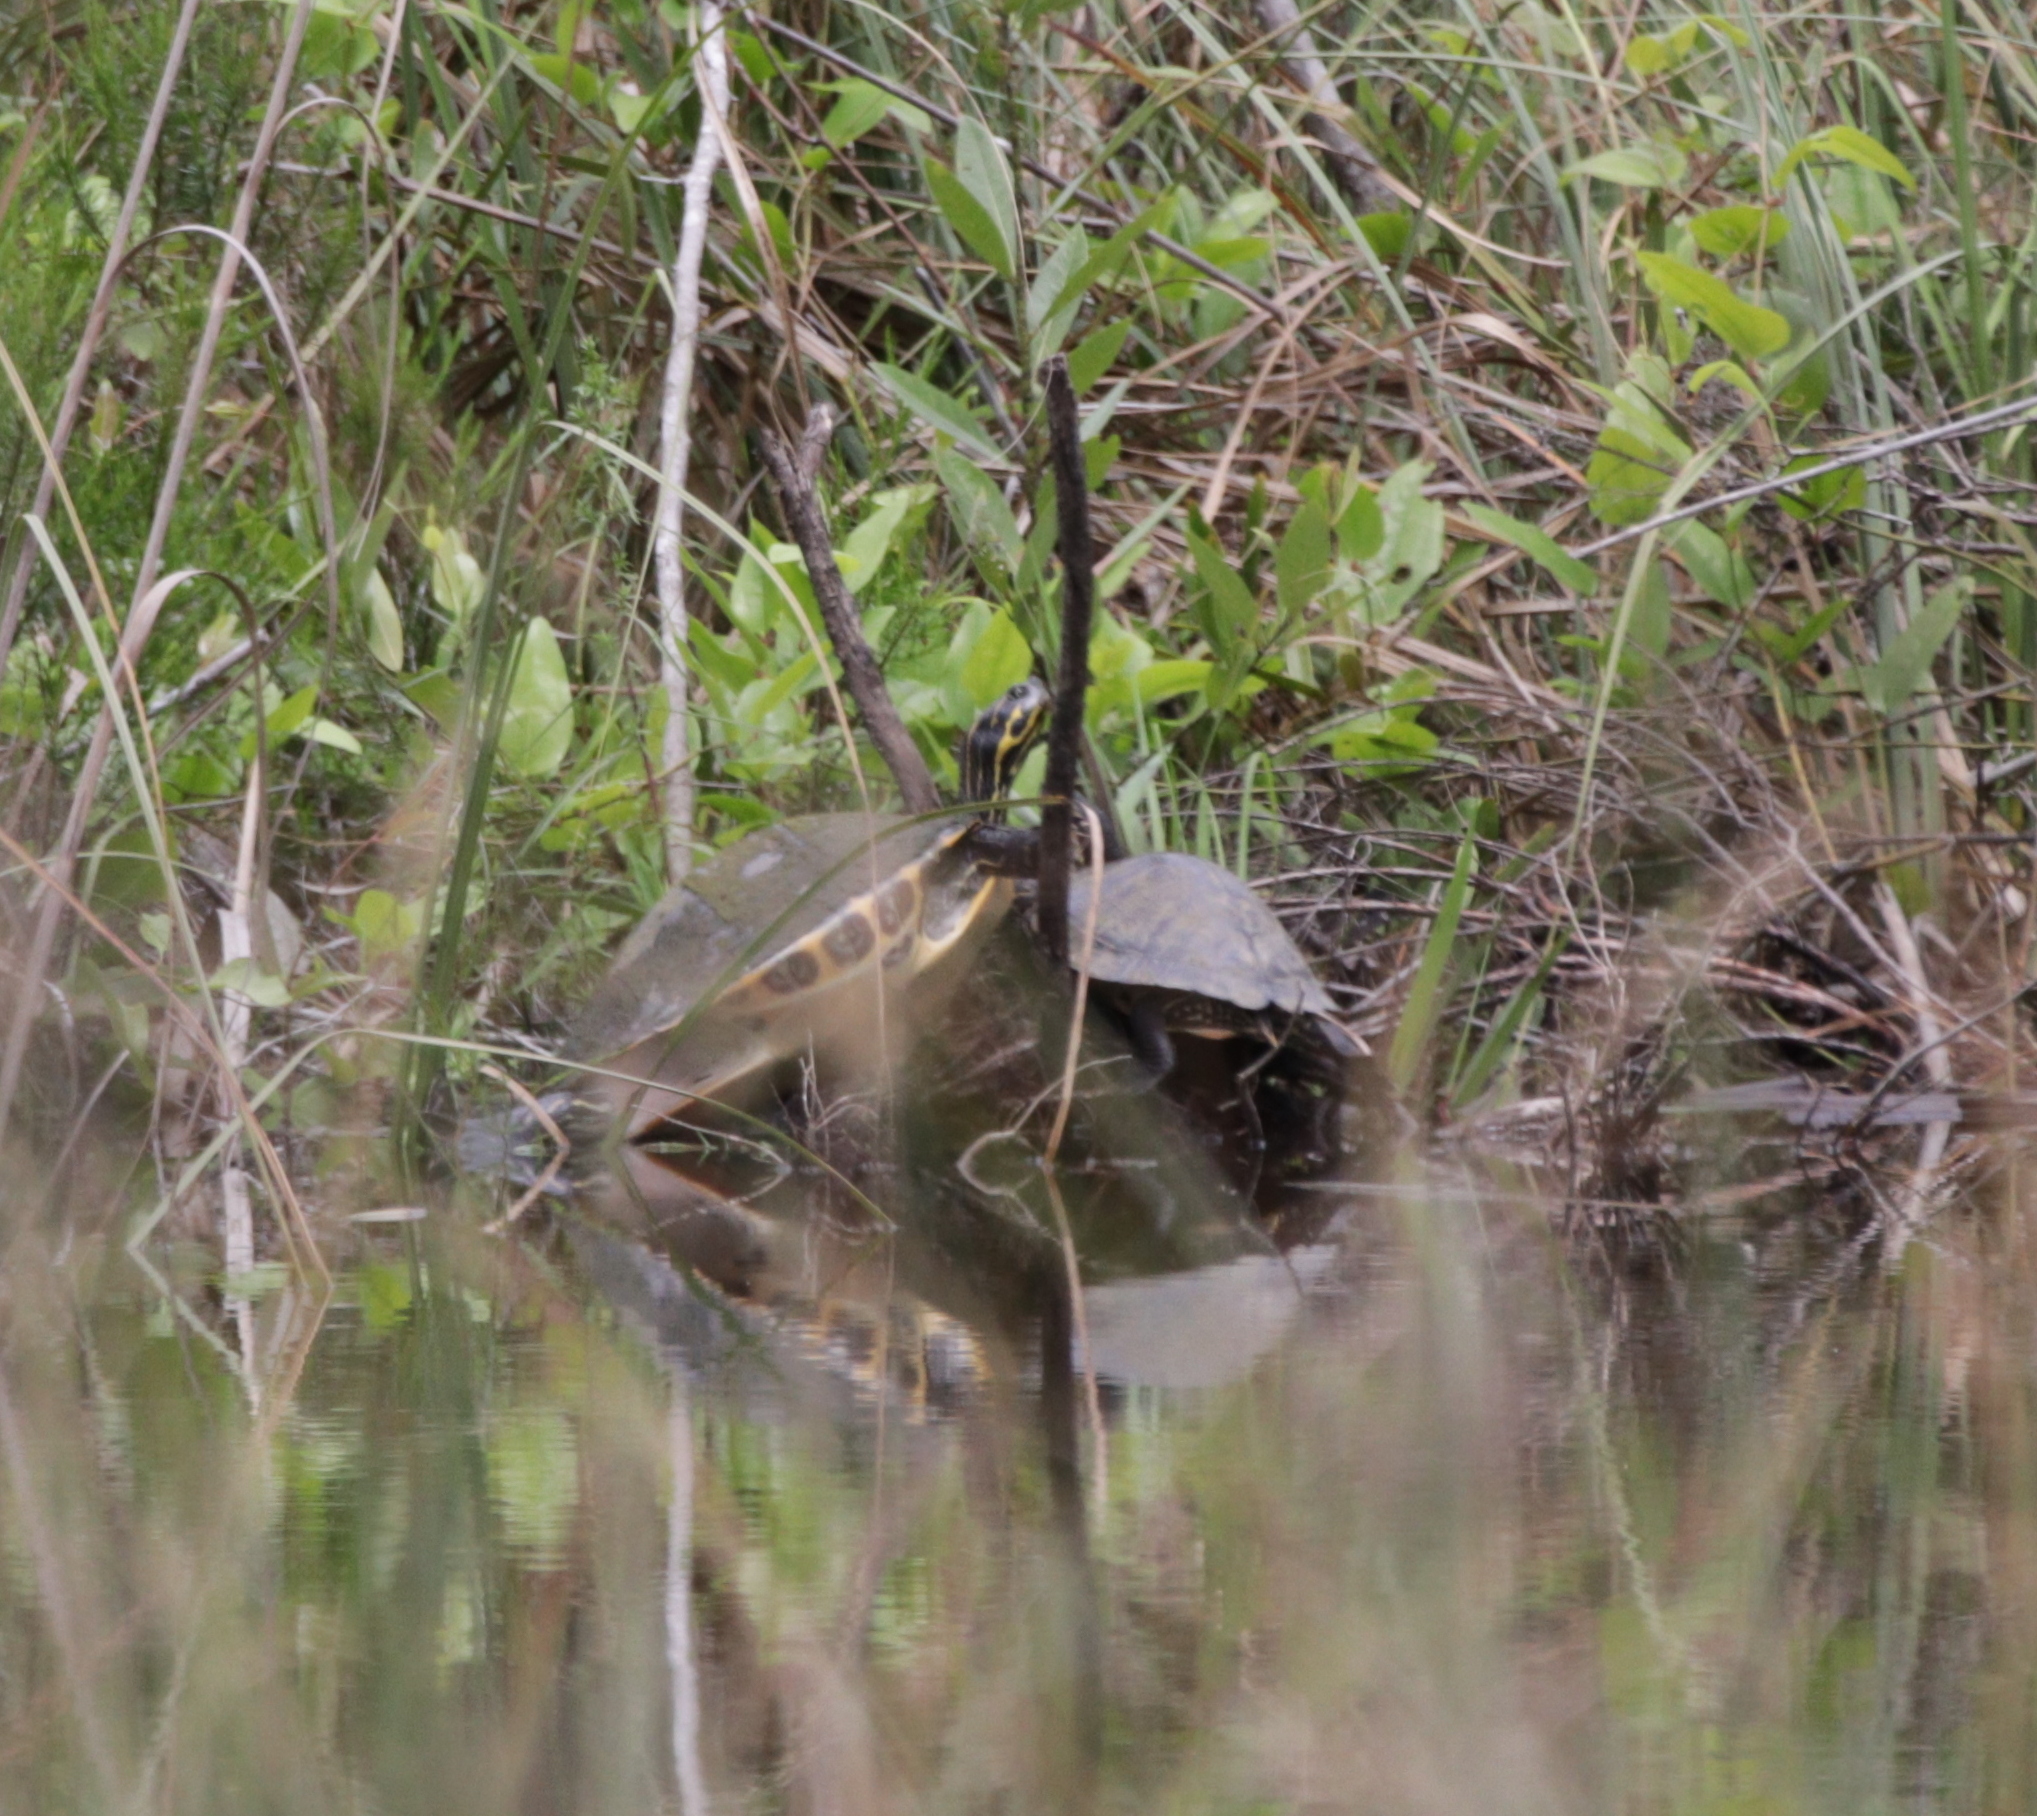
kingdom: Animalia
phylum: Chordata
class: Testudines
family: Emydidae
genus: Pseudemys
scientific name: Pseudemys concinna
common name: Eastern river cooter
